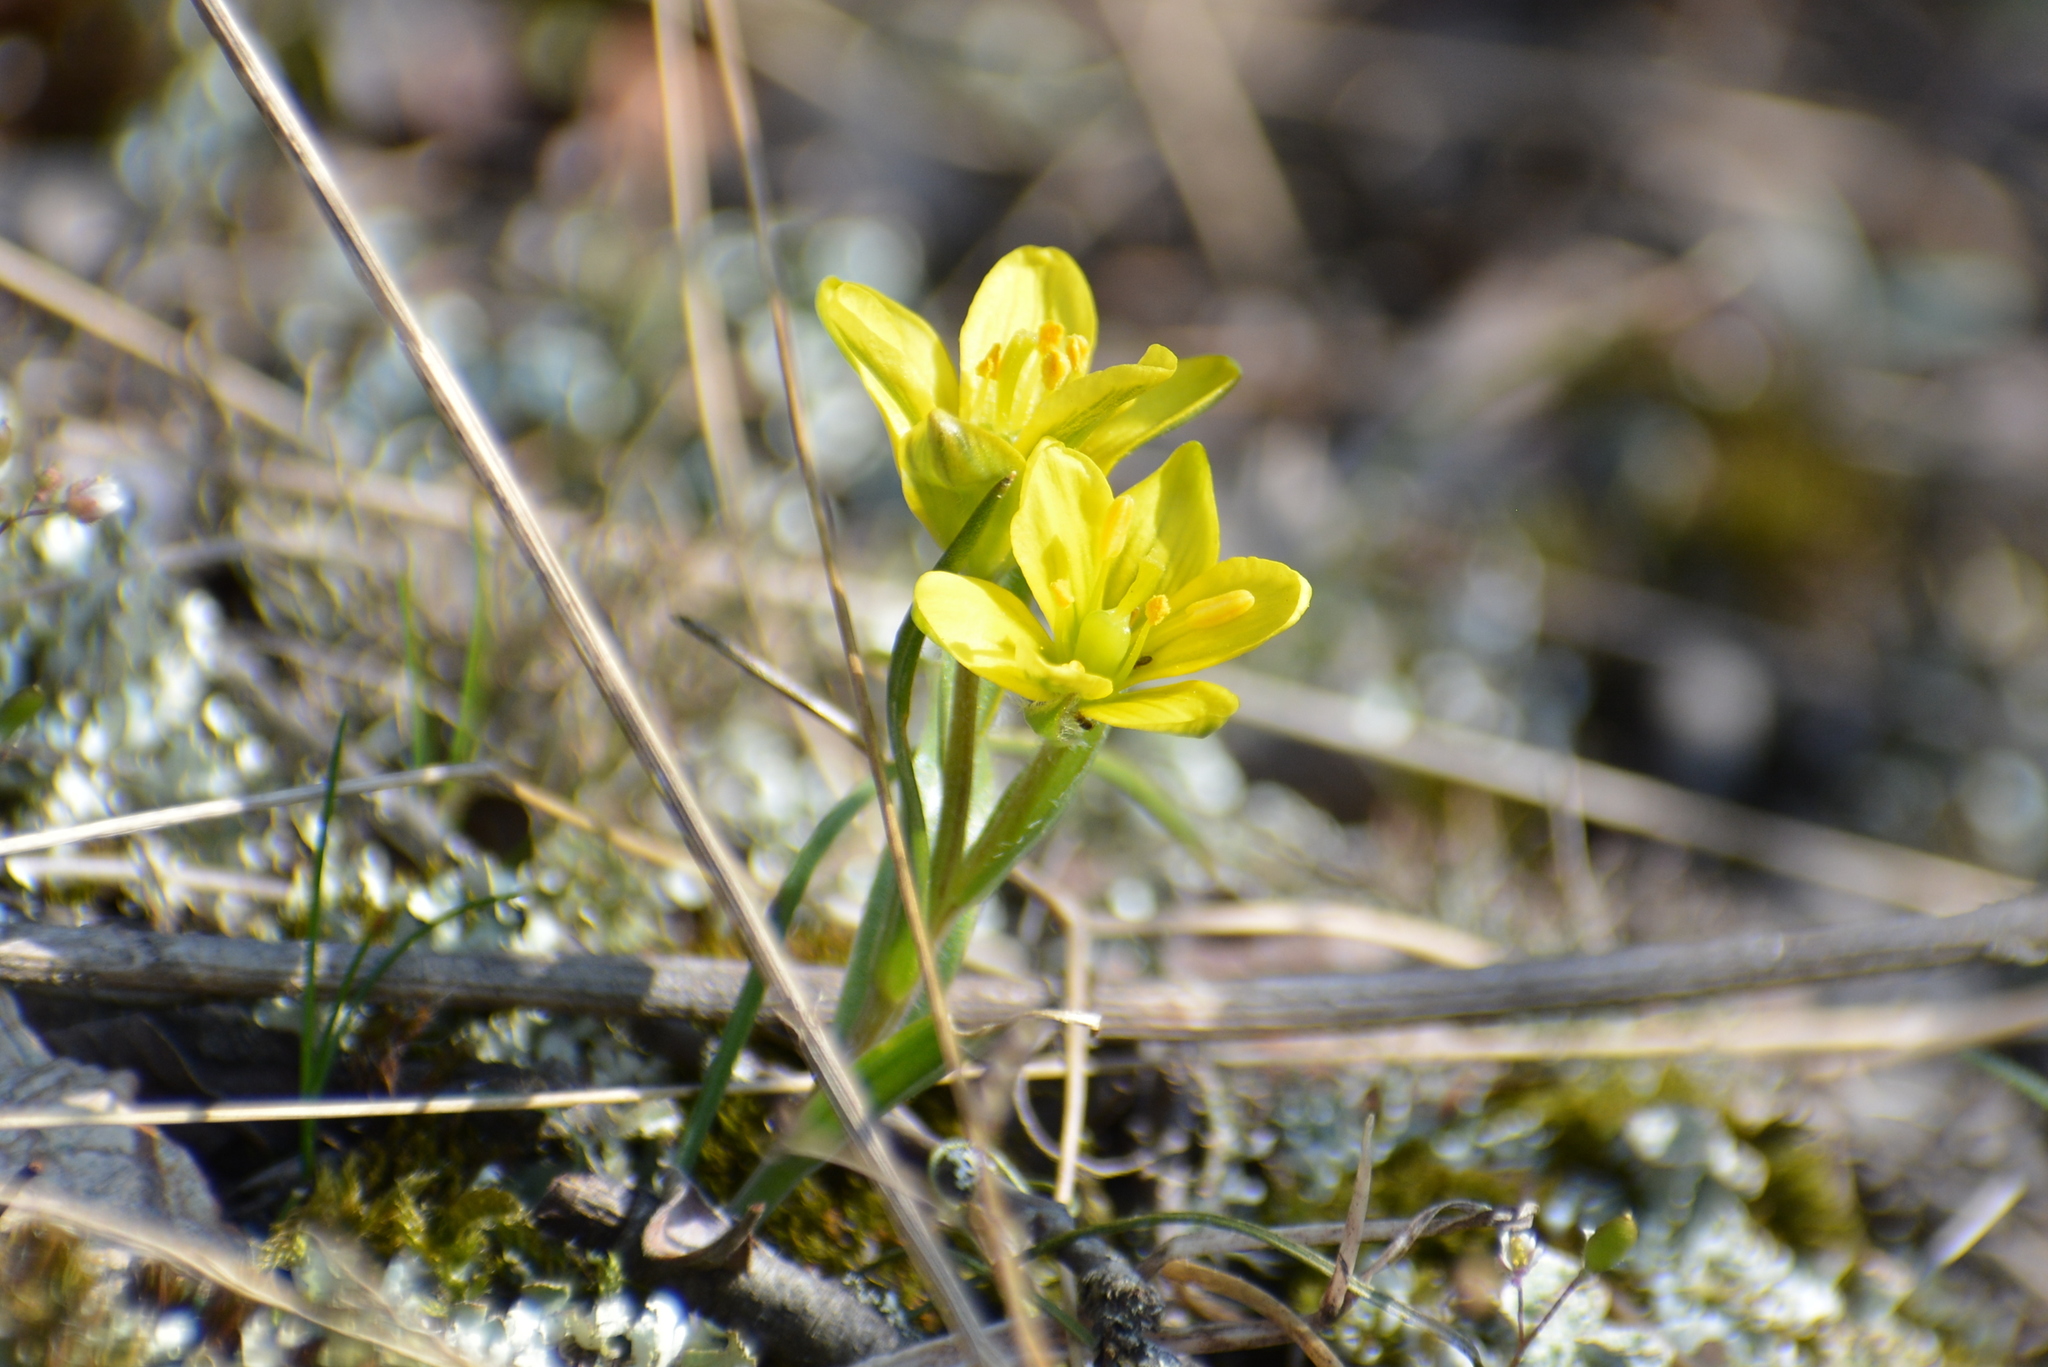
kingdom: Plantae
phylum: Tracheophyta
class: Liliopsida
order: Liliales
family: Liliaceae
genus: Gagea
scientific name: Gagea bohemica
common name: Early star-of-bethlehem
